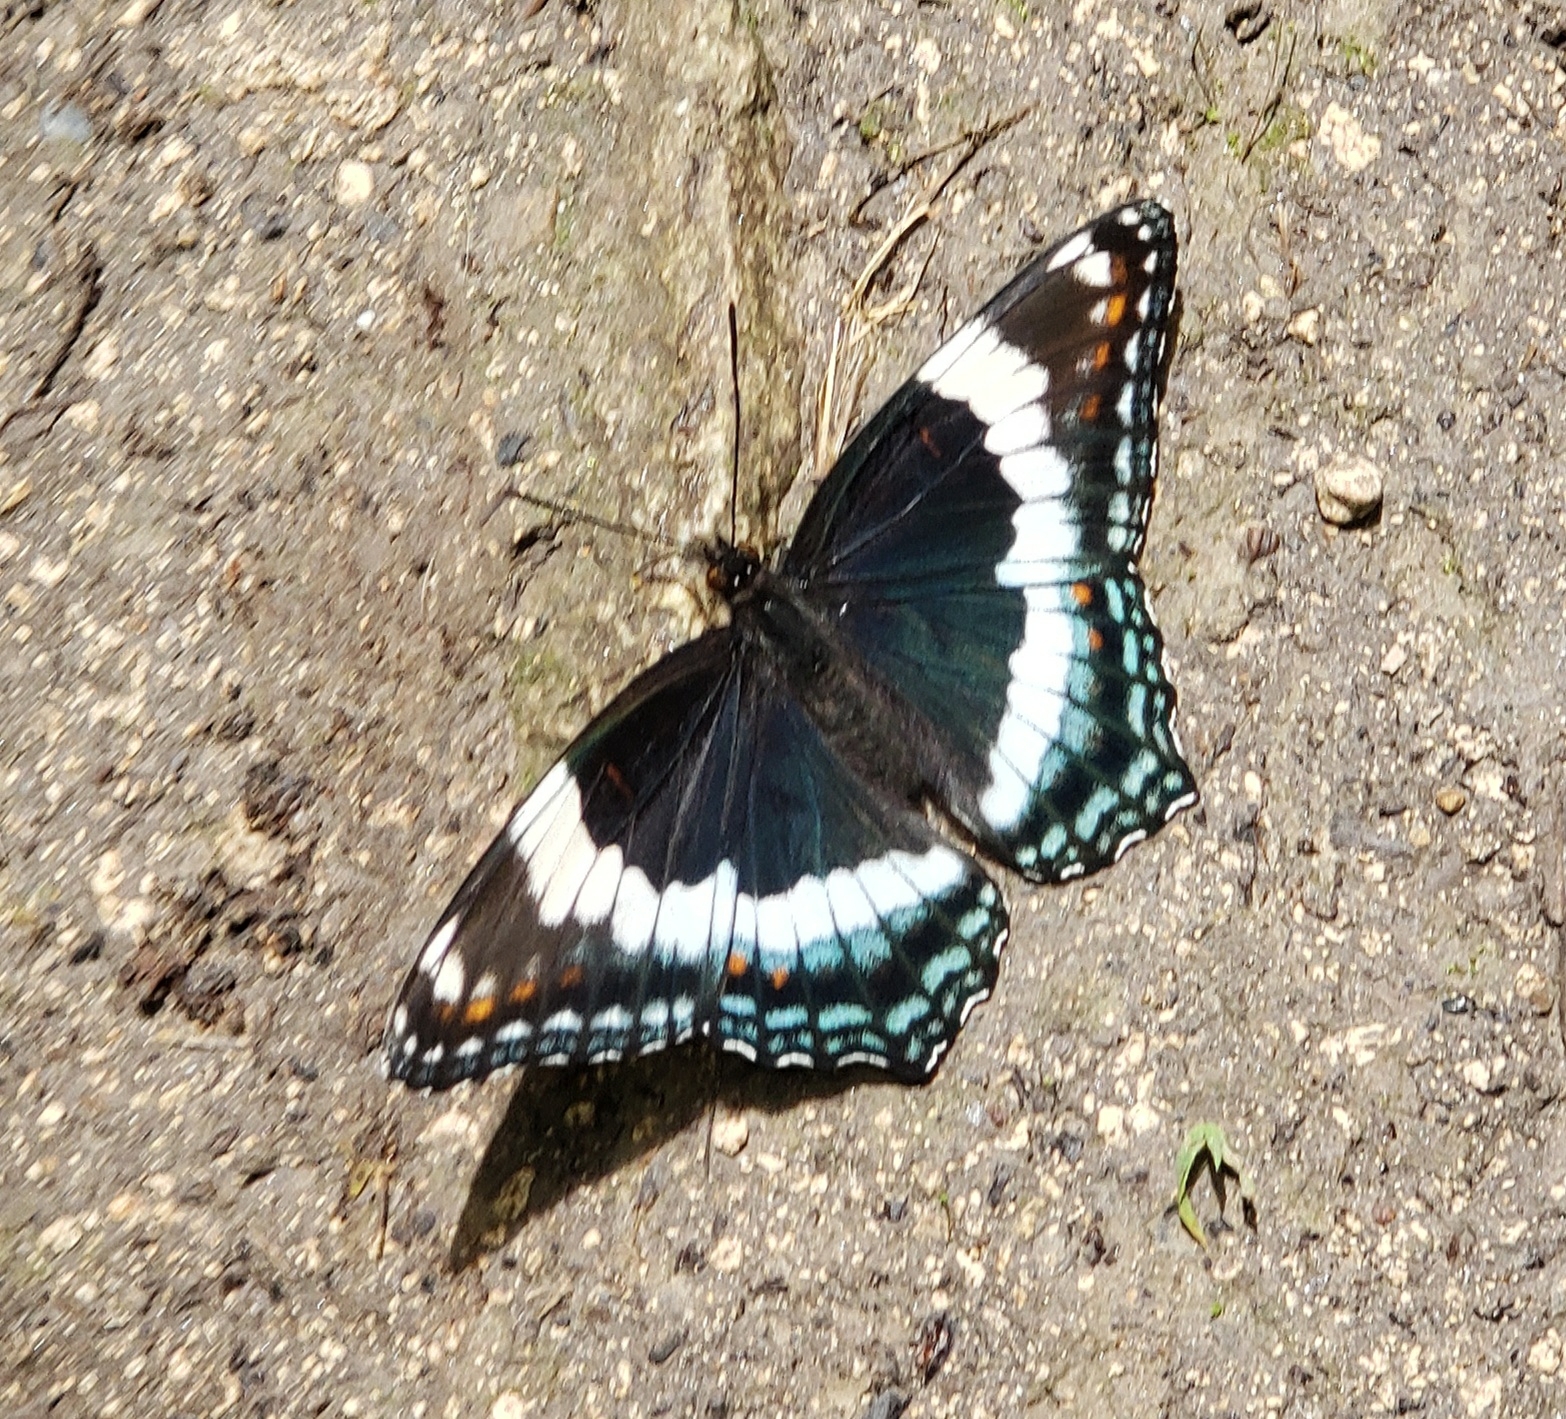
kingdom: Animalia
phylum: Arthropoda
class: Insecta
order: Lepidoptera
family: Nymphalidae
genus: Limenitis
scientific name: Limenitis arthemis
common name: Red-spotted admiral
